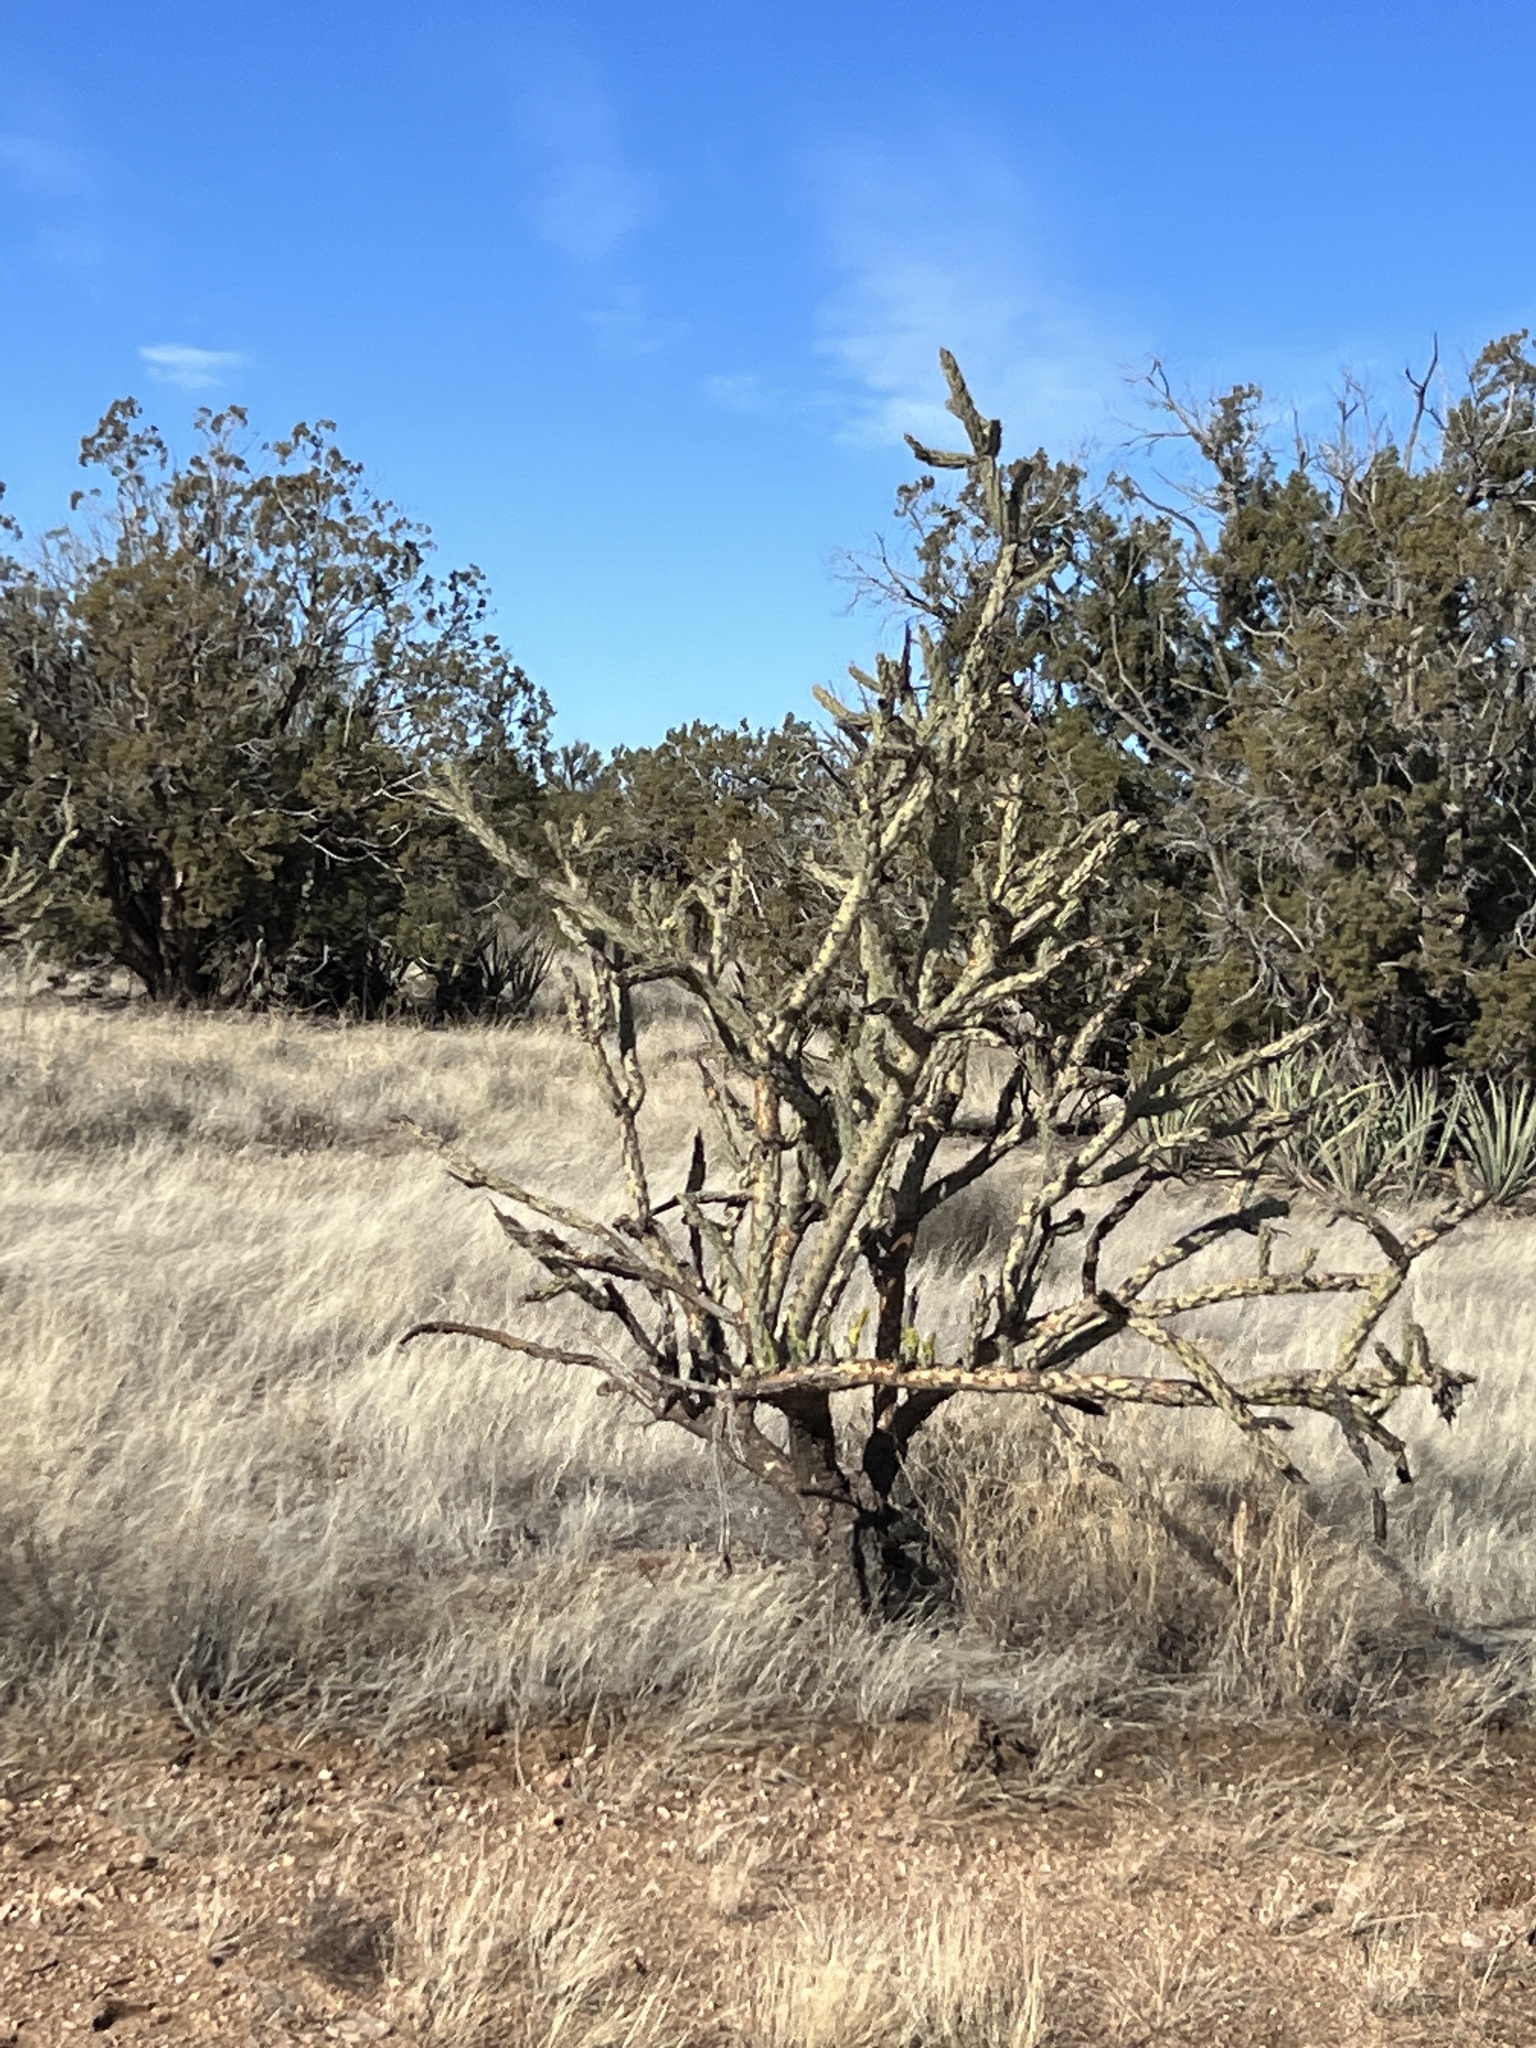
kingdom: Plantae
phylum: Tracheophyta
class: Magnoliopsida
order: Caryophyllales
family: Cactaceae
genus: Cylindropuntia
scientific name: Cylindropuntia acanthocarpa
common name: Buckhorn cholla
